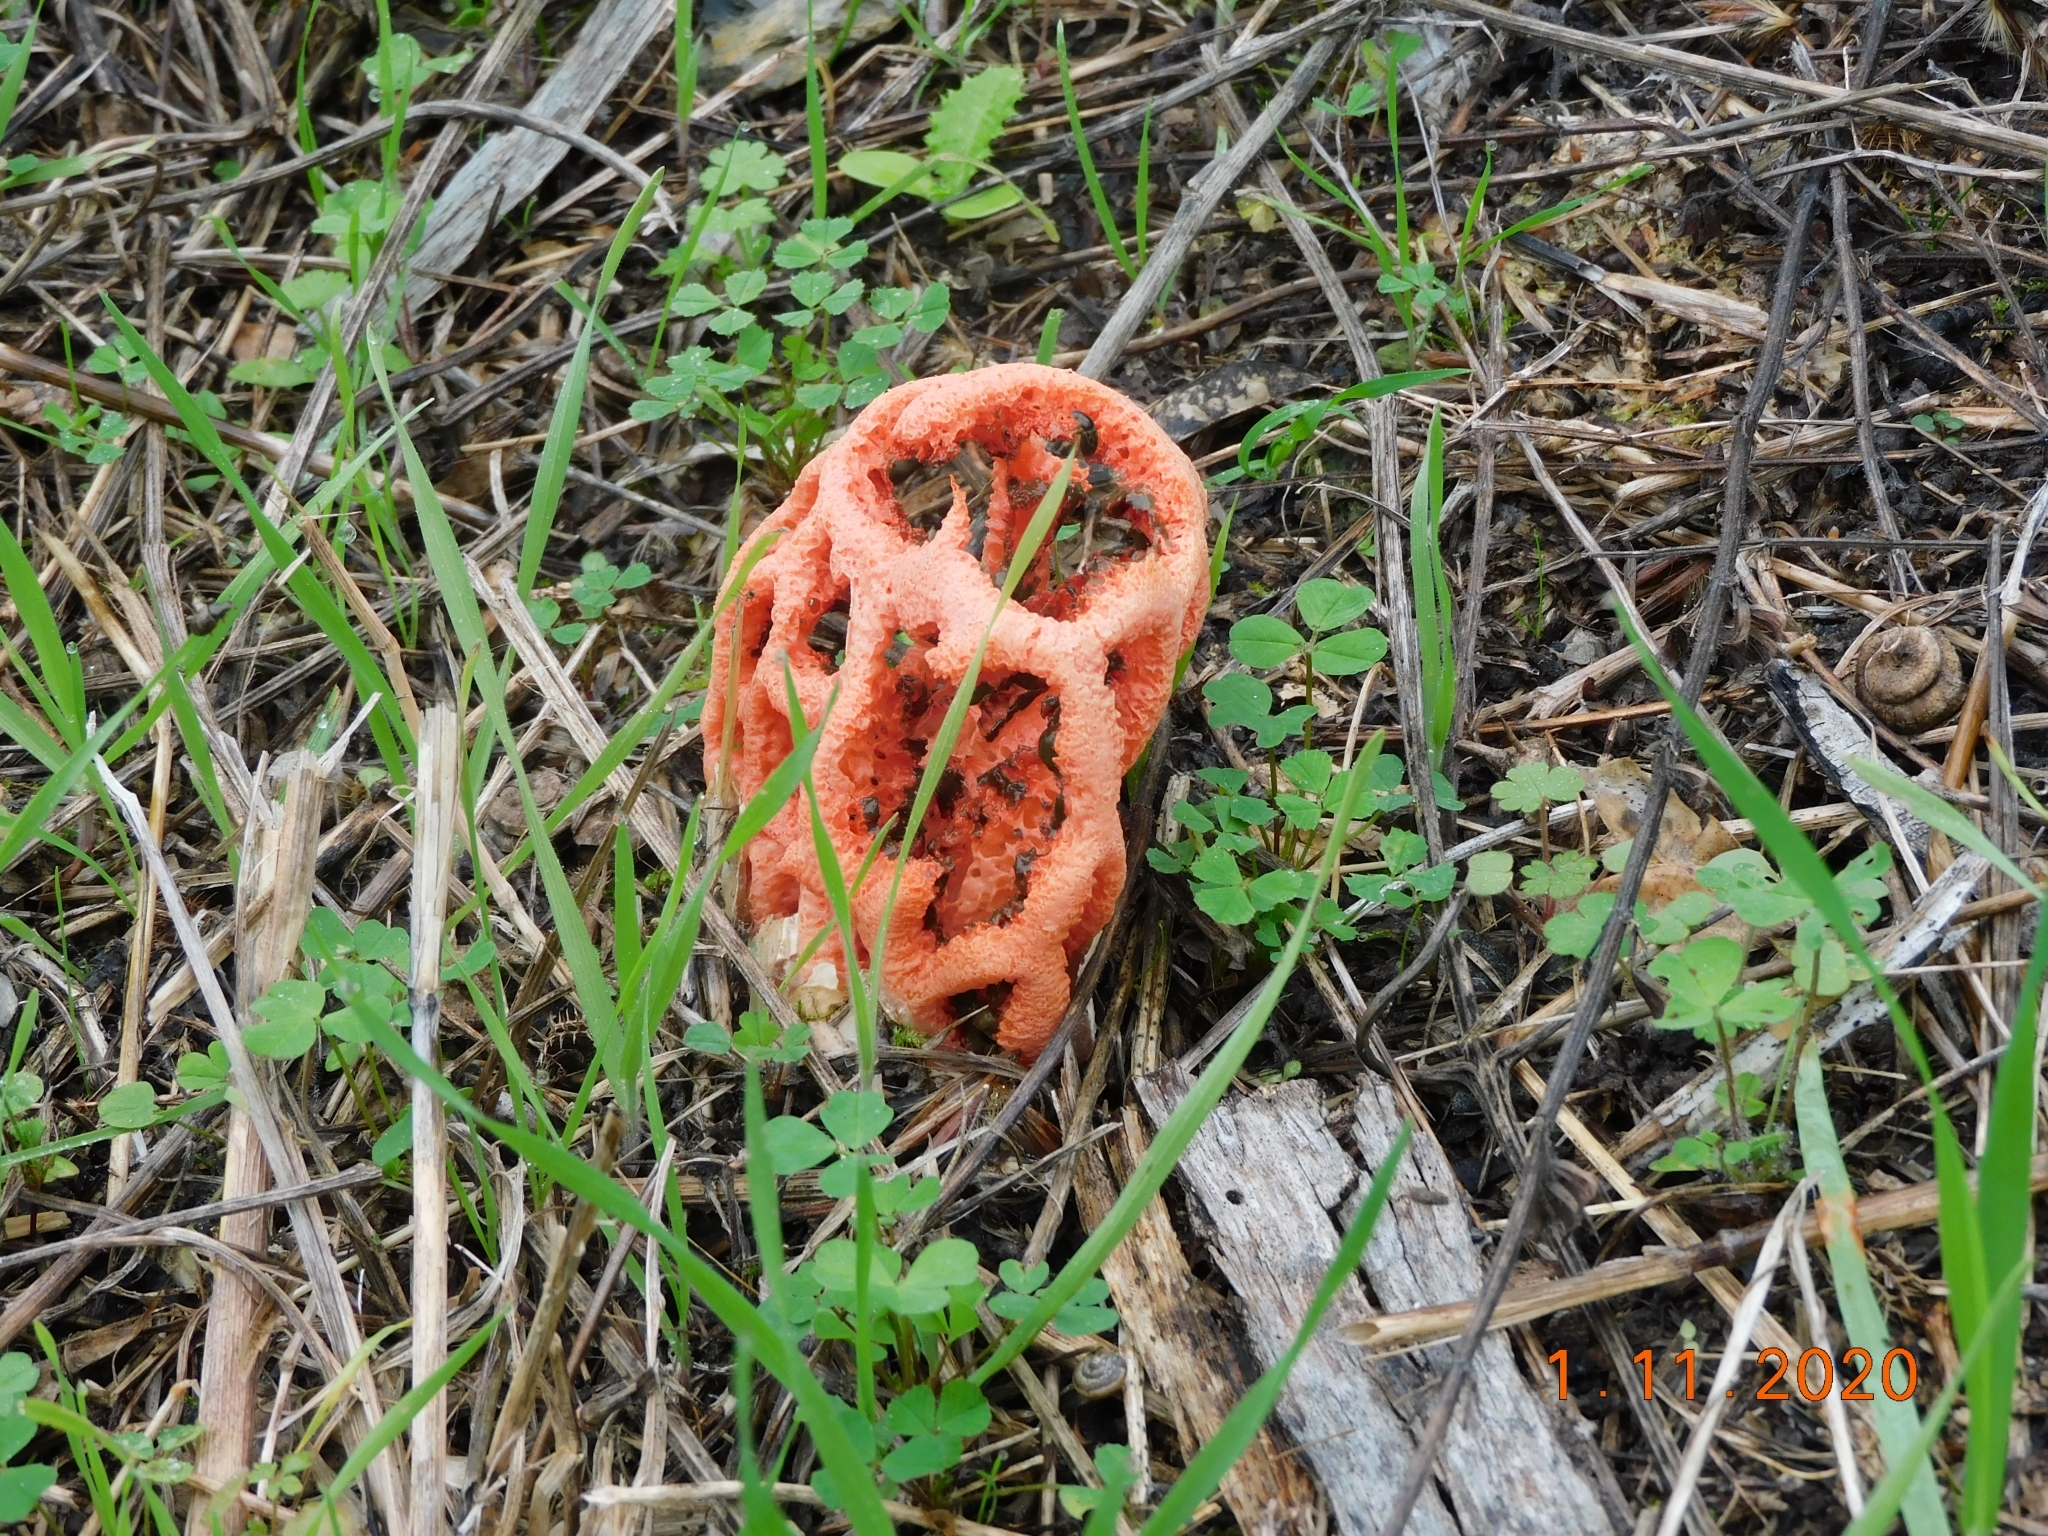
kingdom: Fungi
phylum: Basidiomycota
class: Agaricomycetes
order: Phallales
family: Phallaceae
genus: Clathrus
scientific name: Clathrus ruber
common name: Red cage
